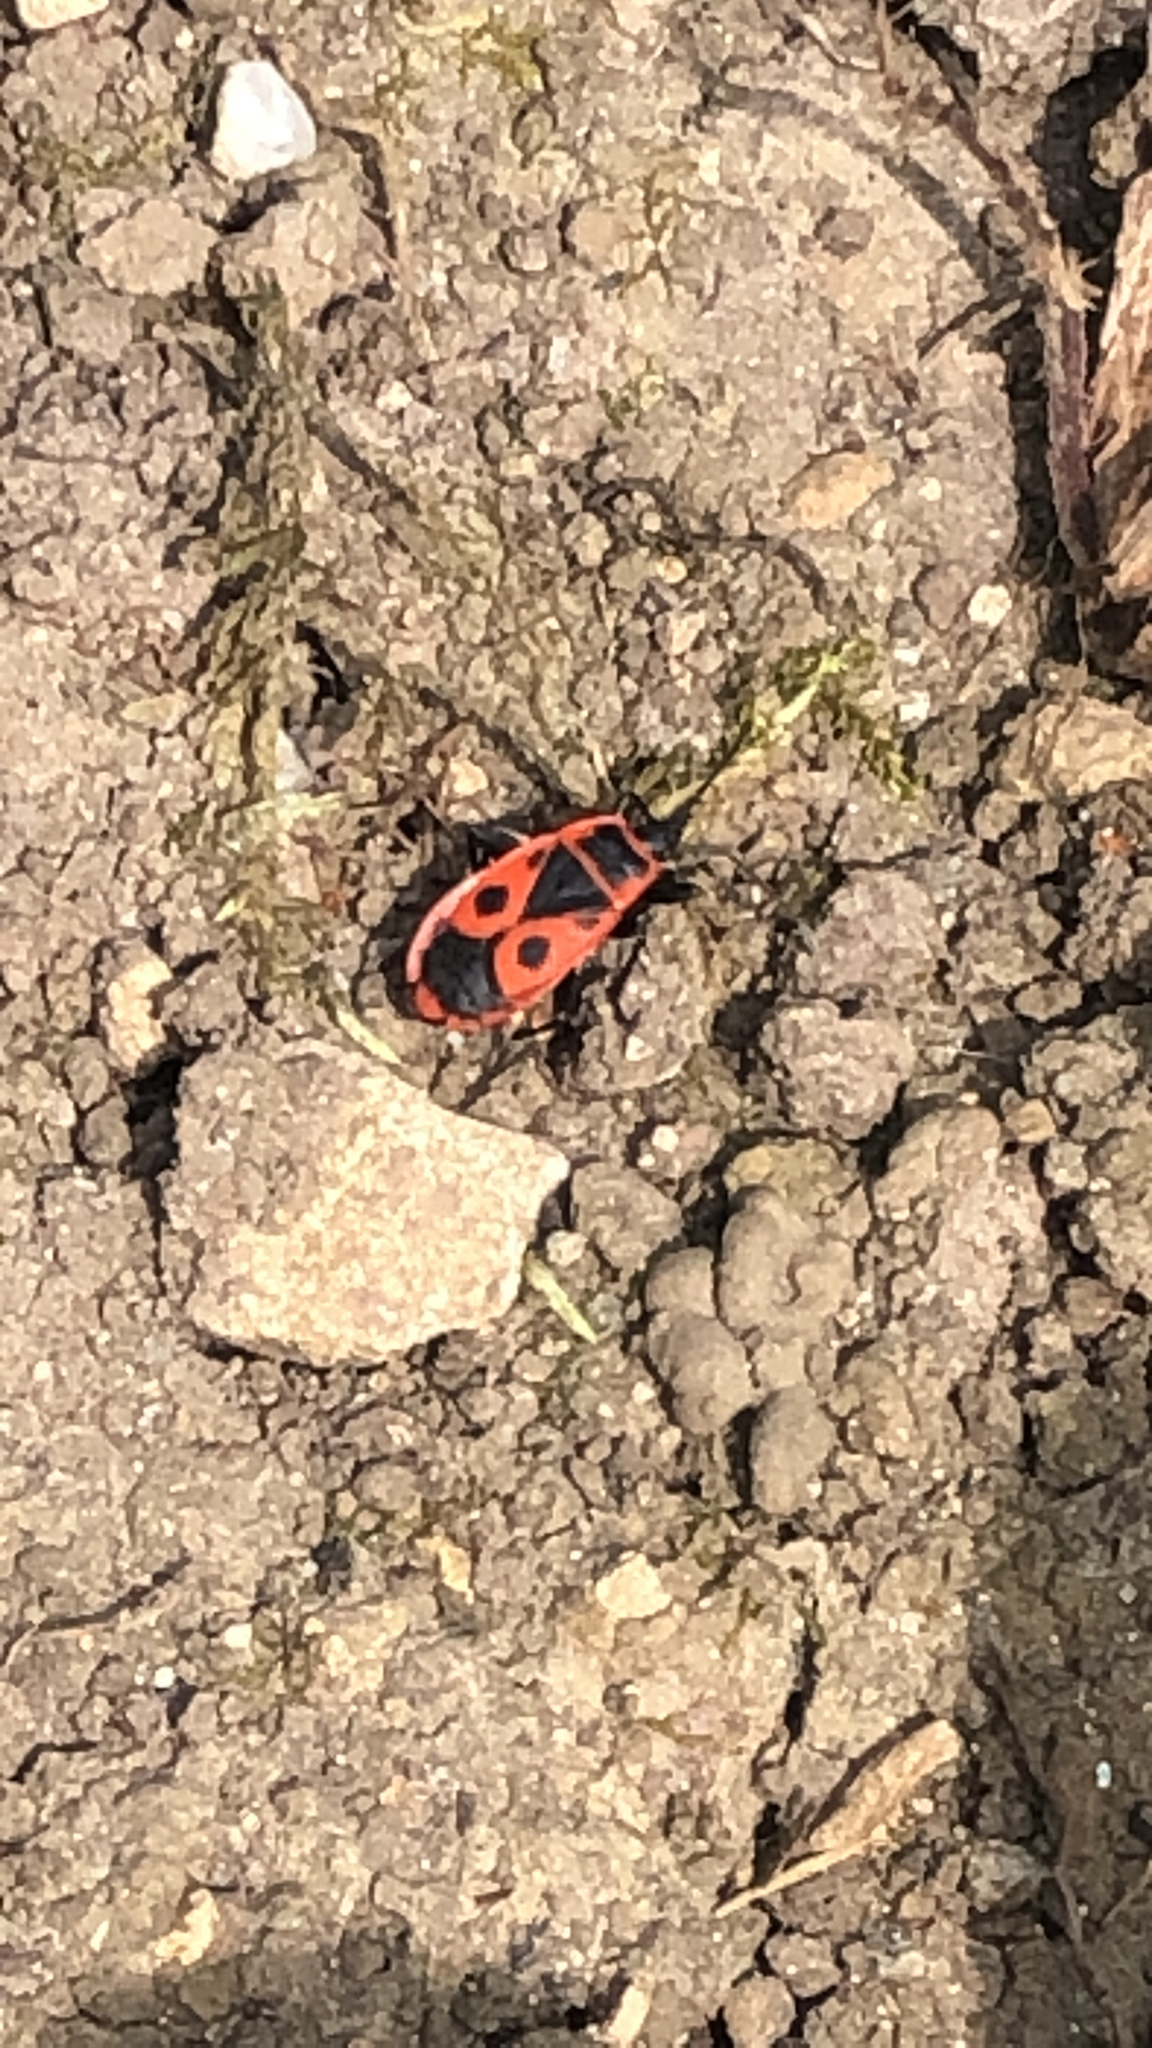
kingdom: Animalia
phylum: Arthropoda
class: Insecta
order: Hemiptera
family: Pyrrhocoridae
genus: Pyrrhocoris
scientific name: Pyrrhocoris apterus
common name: Firebug
